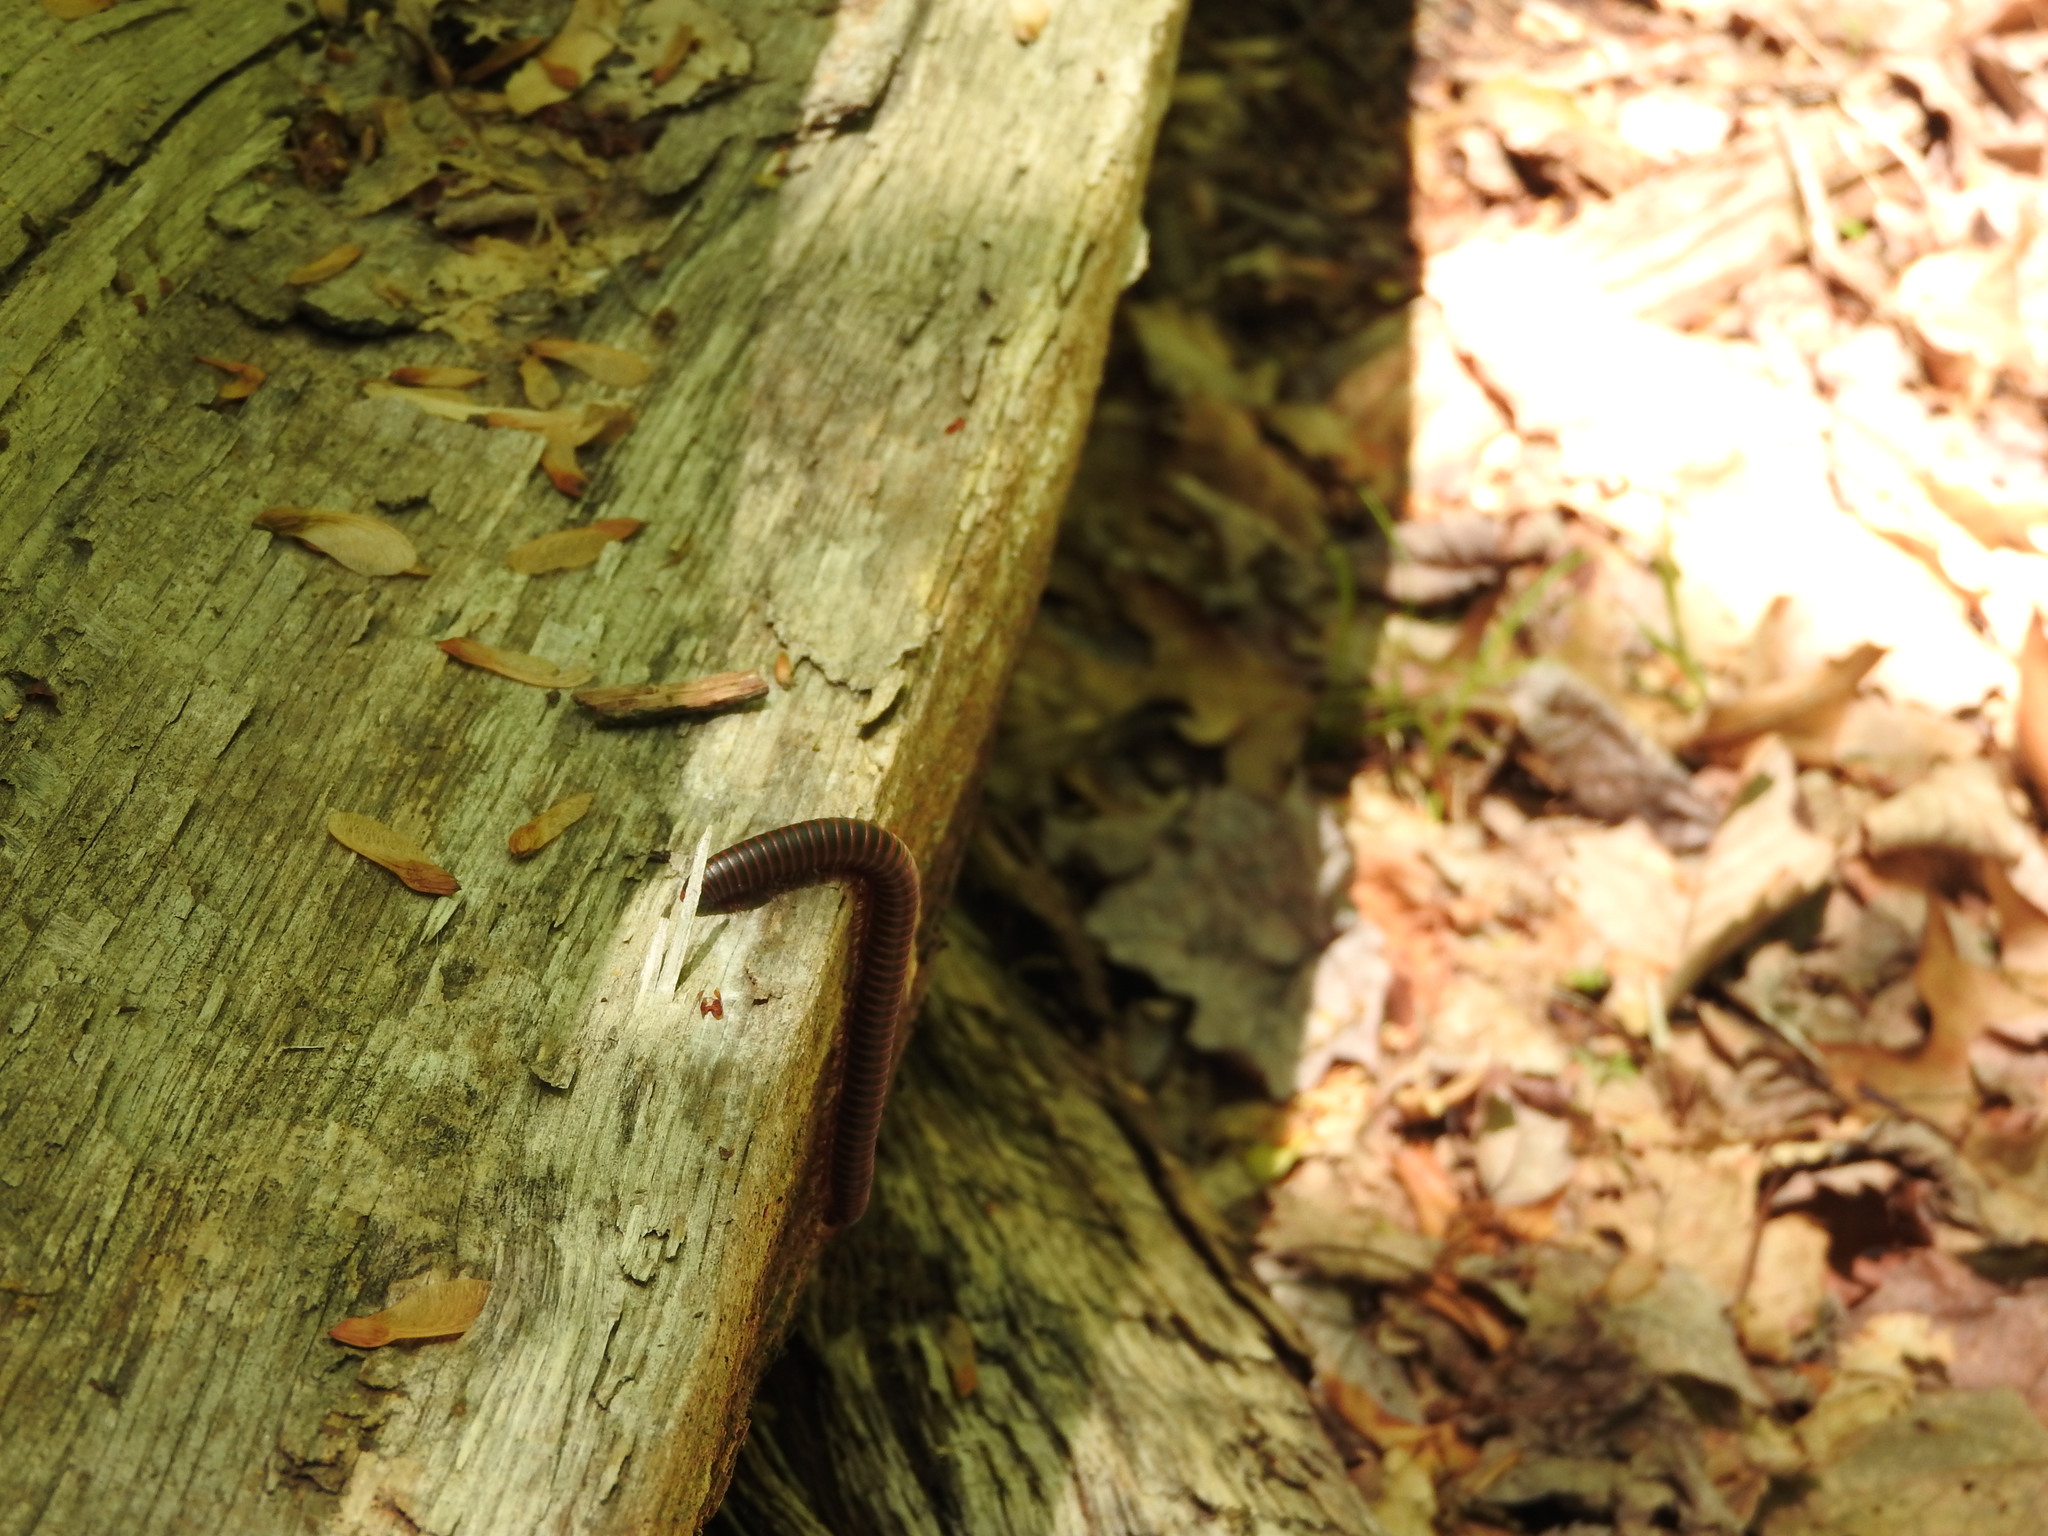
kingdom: Animalia
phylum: Arthropoda
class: Diplopoda
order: Spirobolida
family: Spirobolidae
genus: Narceus
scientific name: Narceus
